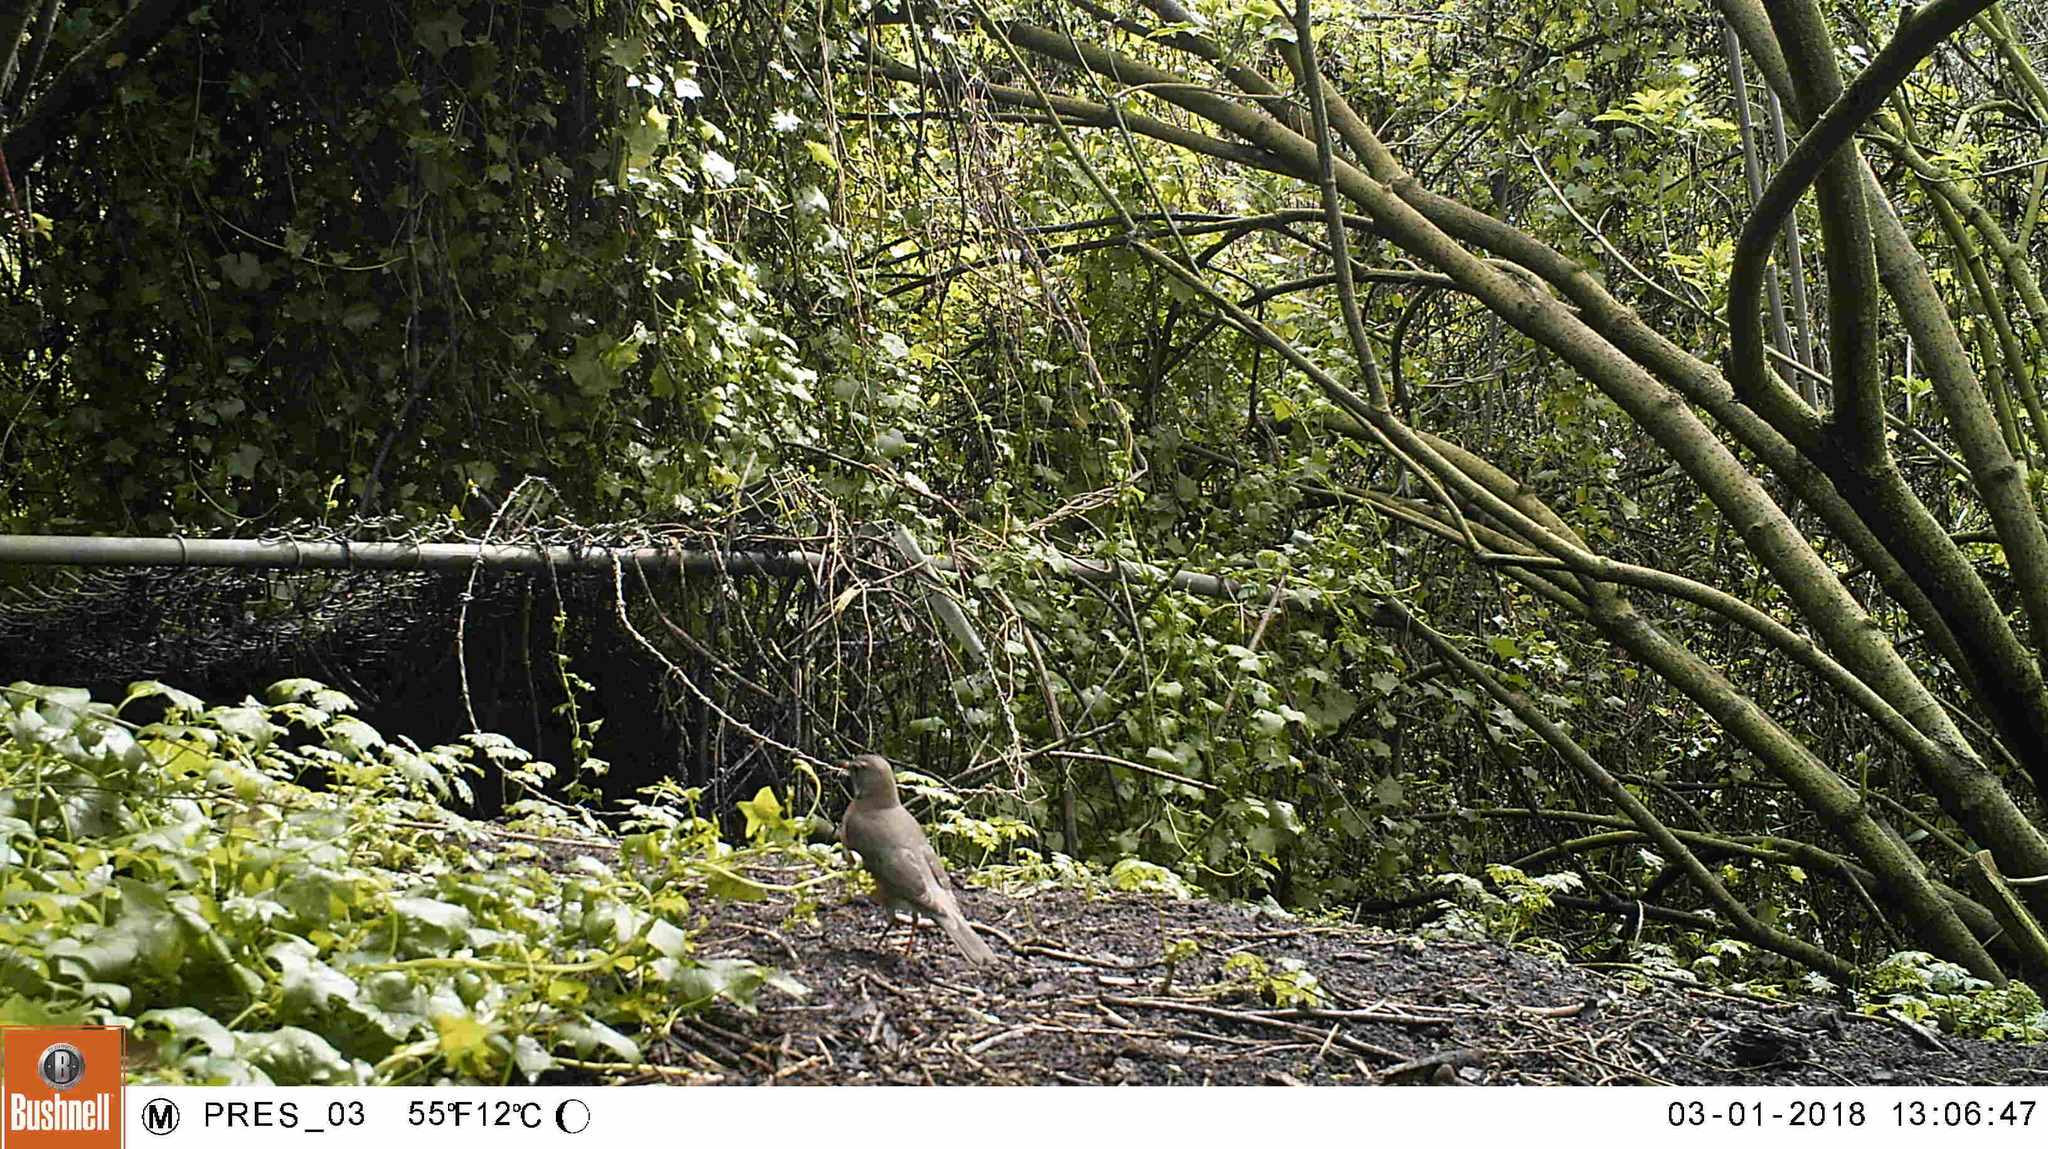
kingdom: Animalia
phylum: Chordata
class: Aves
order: Passeriformes
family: Turdidae
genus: Turdus
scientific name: Turdus migratorius
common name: American robin
